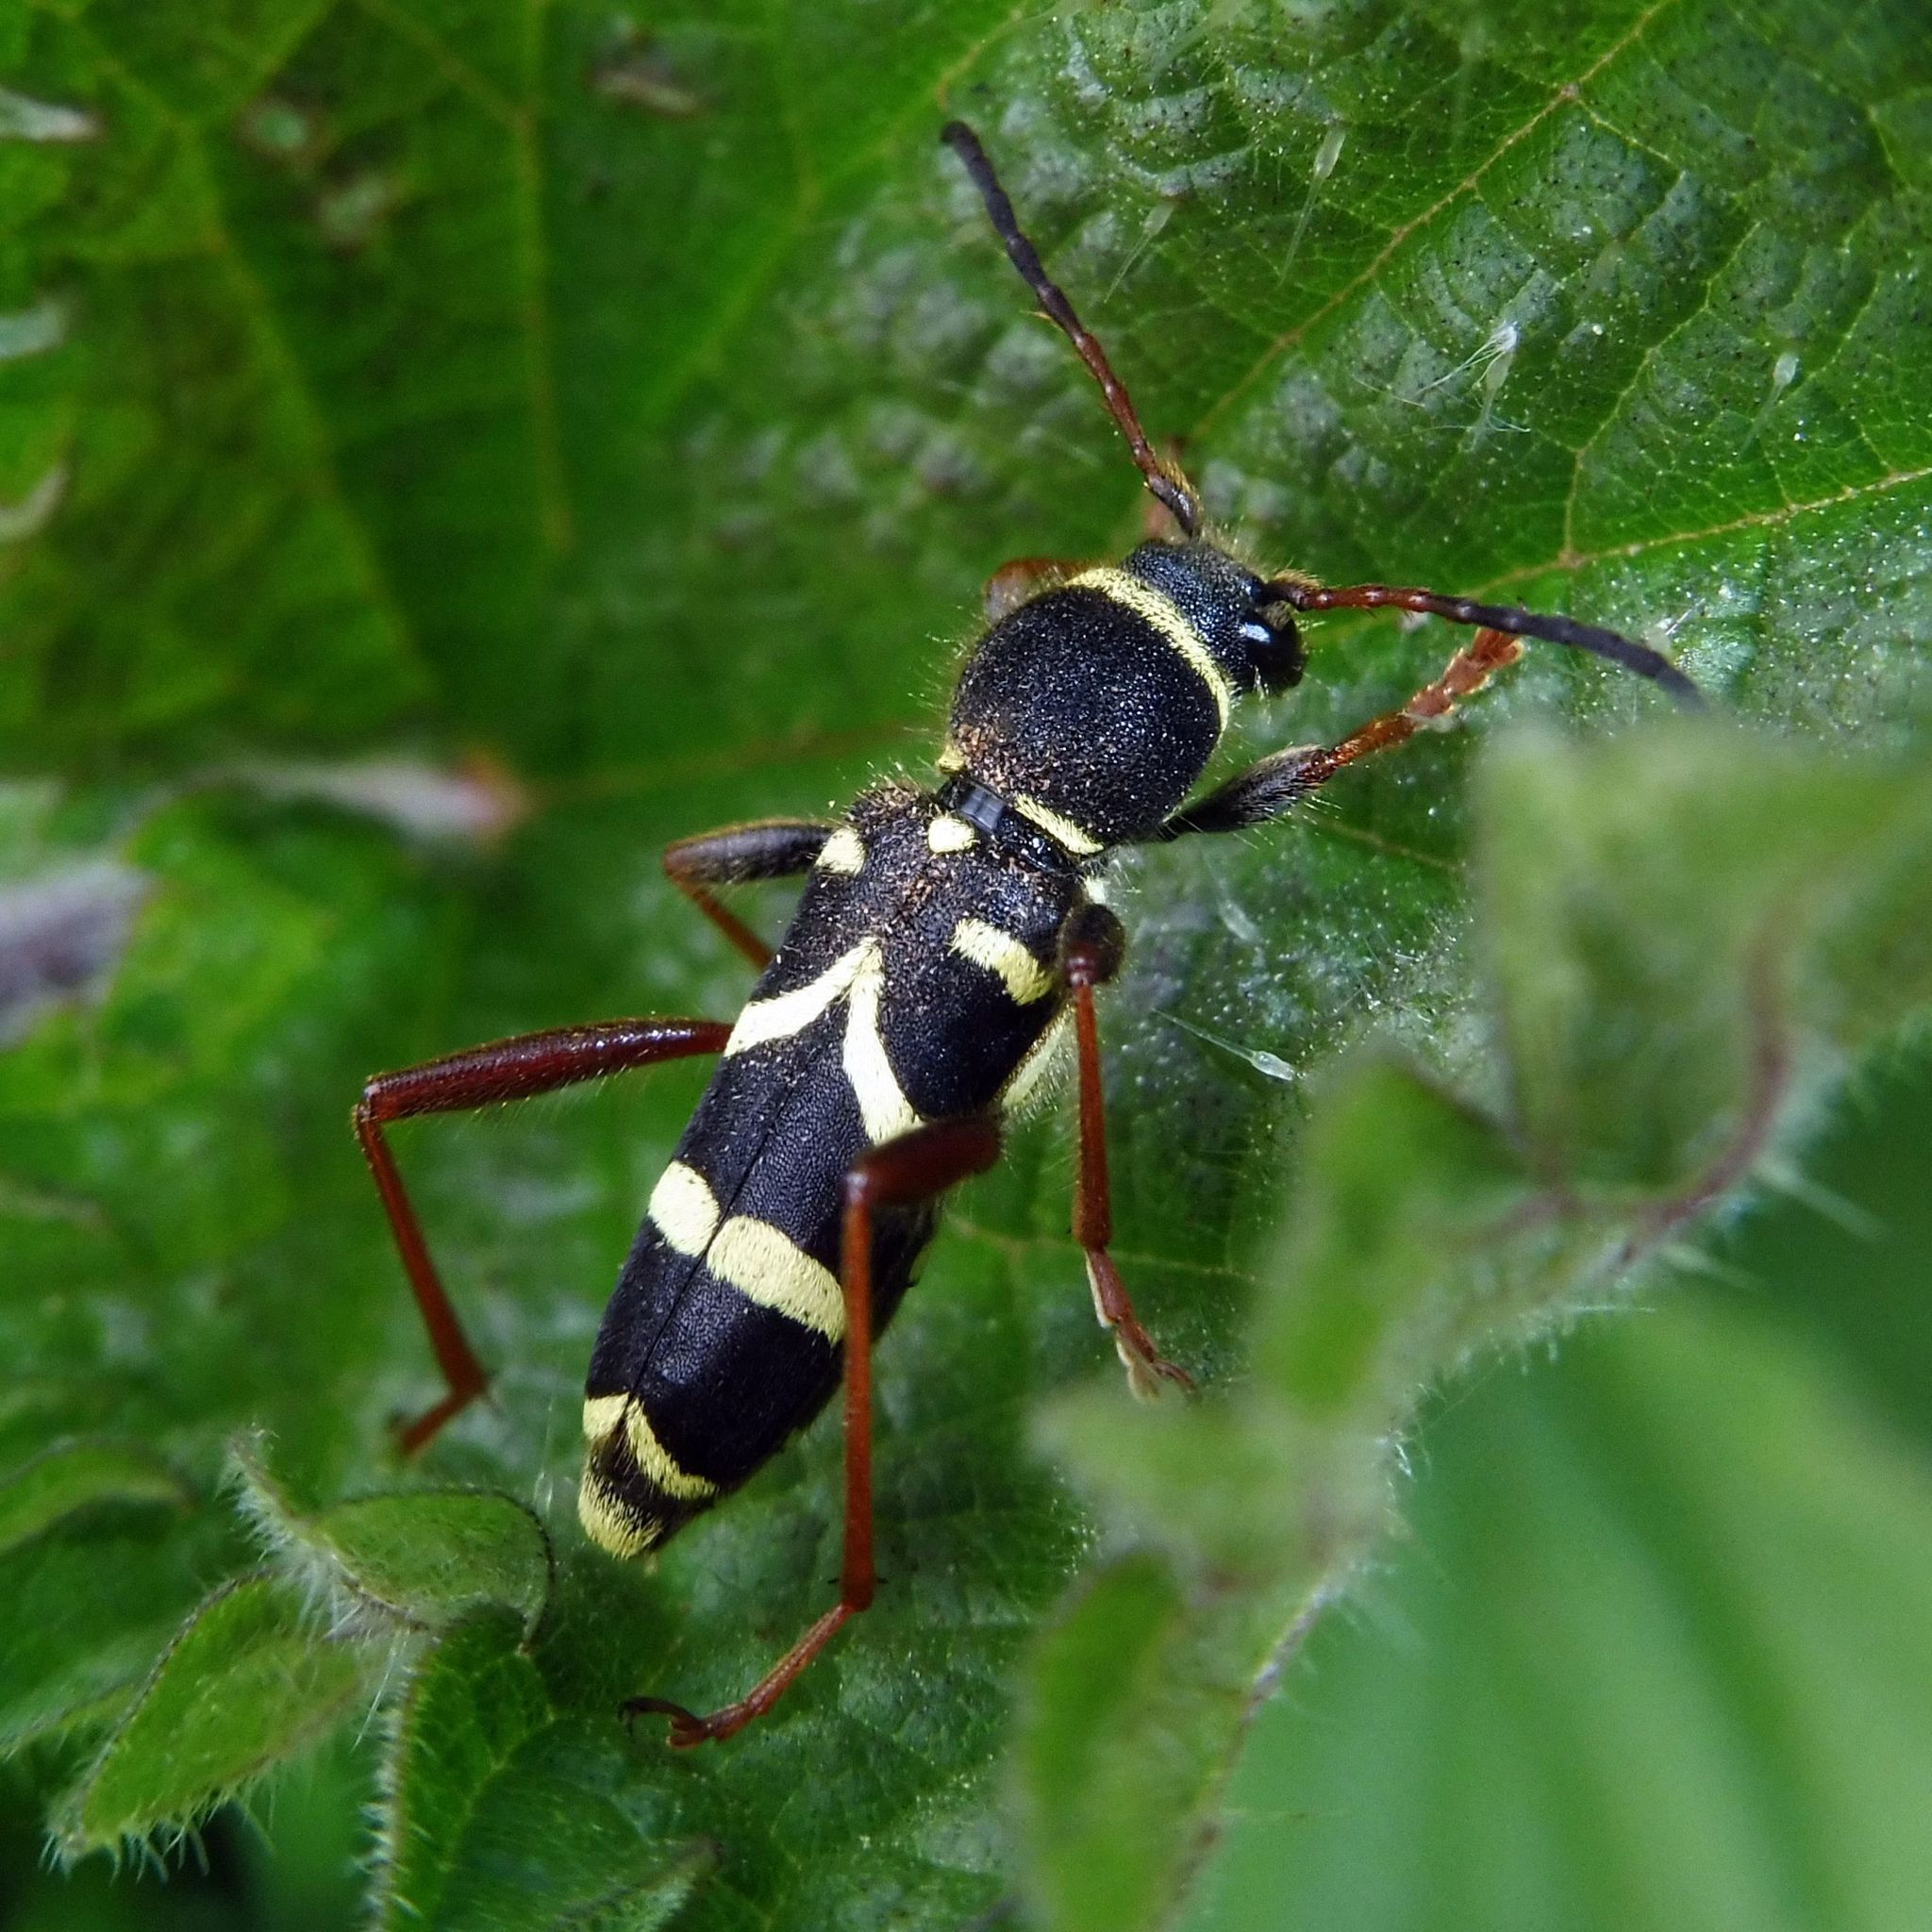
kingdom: Animalia
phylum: Arthropoda
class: Insecta
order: Coleoptera
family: Cerambycidae
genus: Clytus
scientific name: Clytus arietis
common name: Wasp beetle
